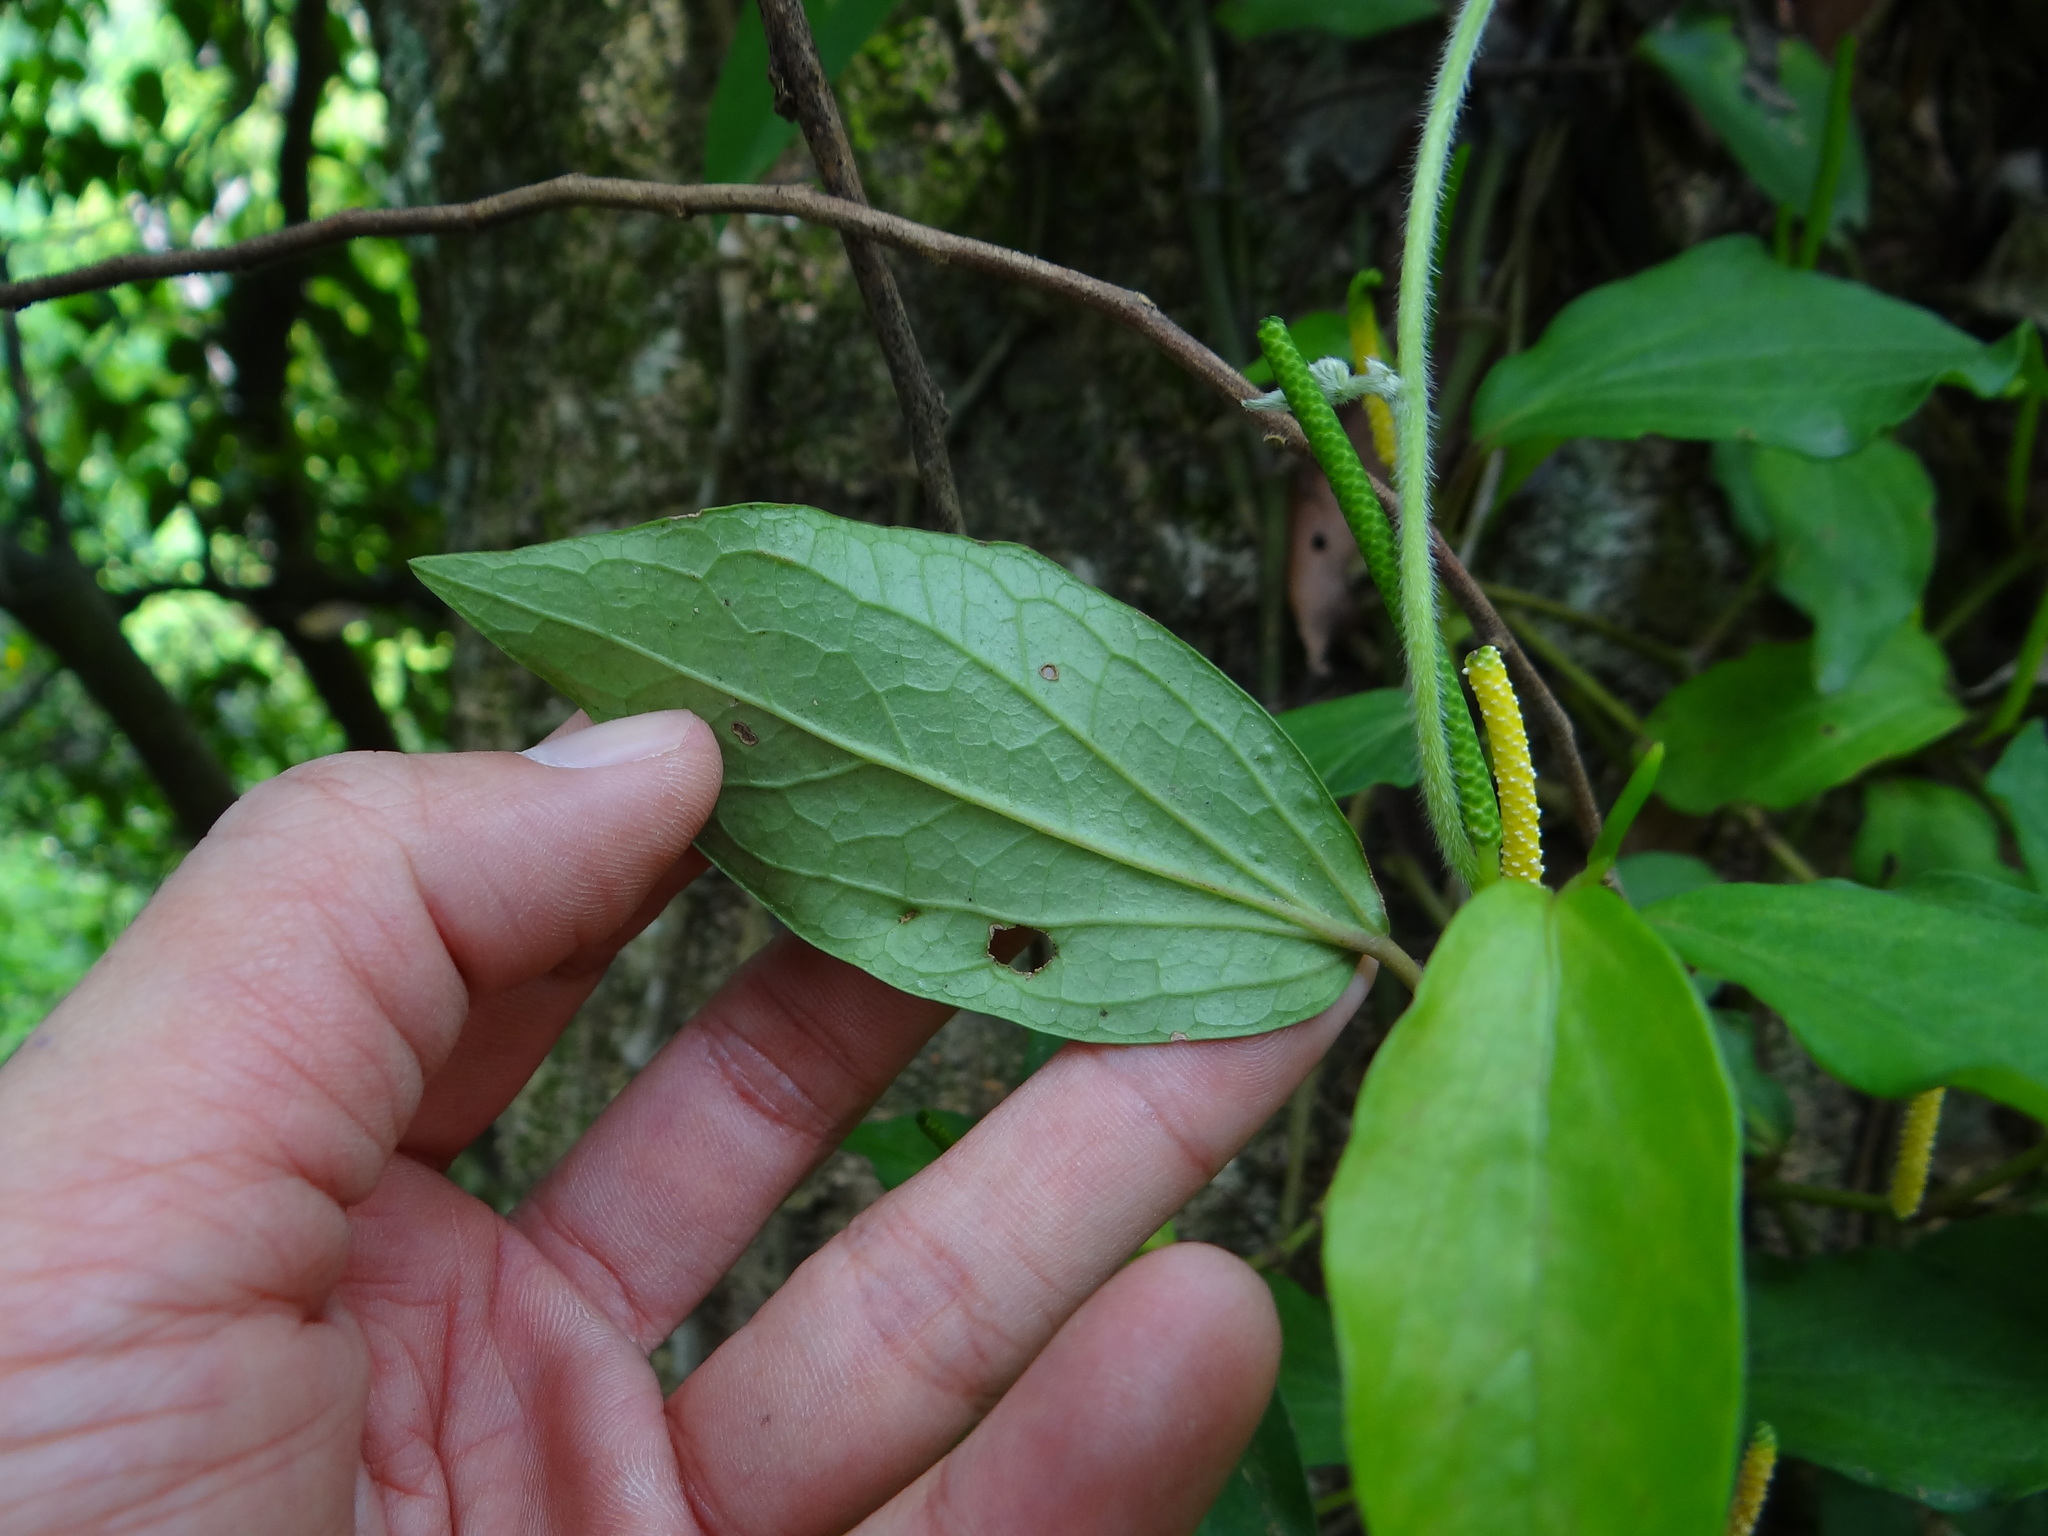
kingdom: Plantae
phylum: Tracheophyta
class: Magnoliopsida
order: Piperales
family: Piperaceae
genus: Piper
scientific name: Piper kadsura
